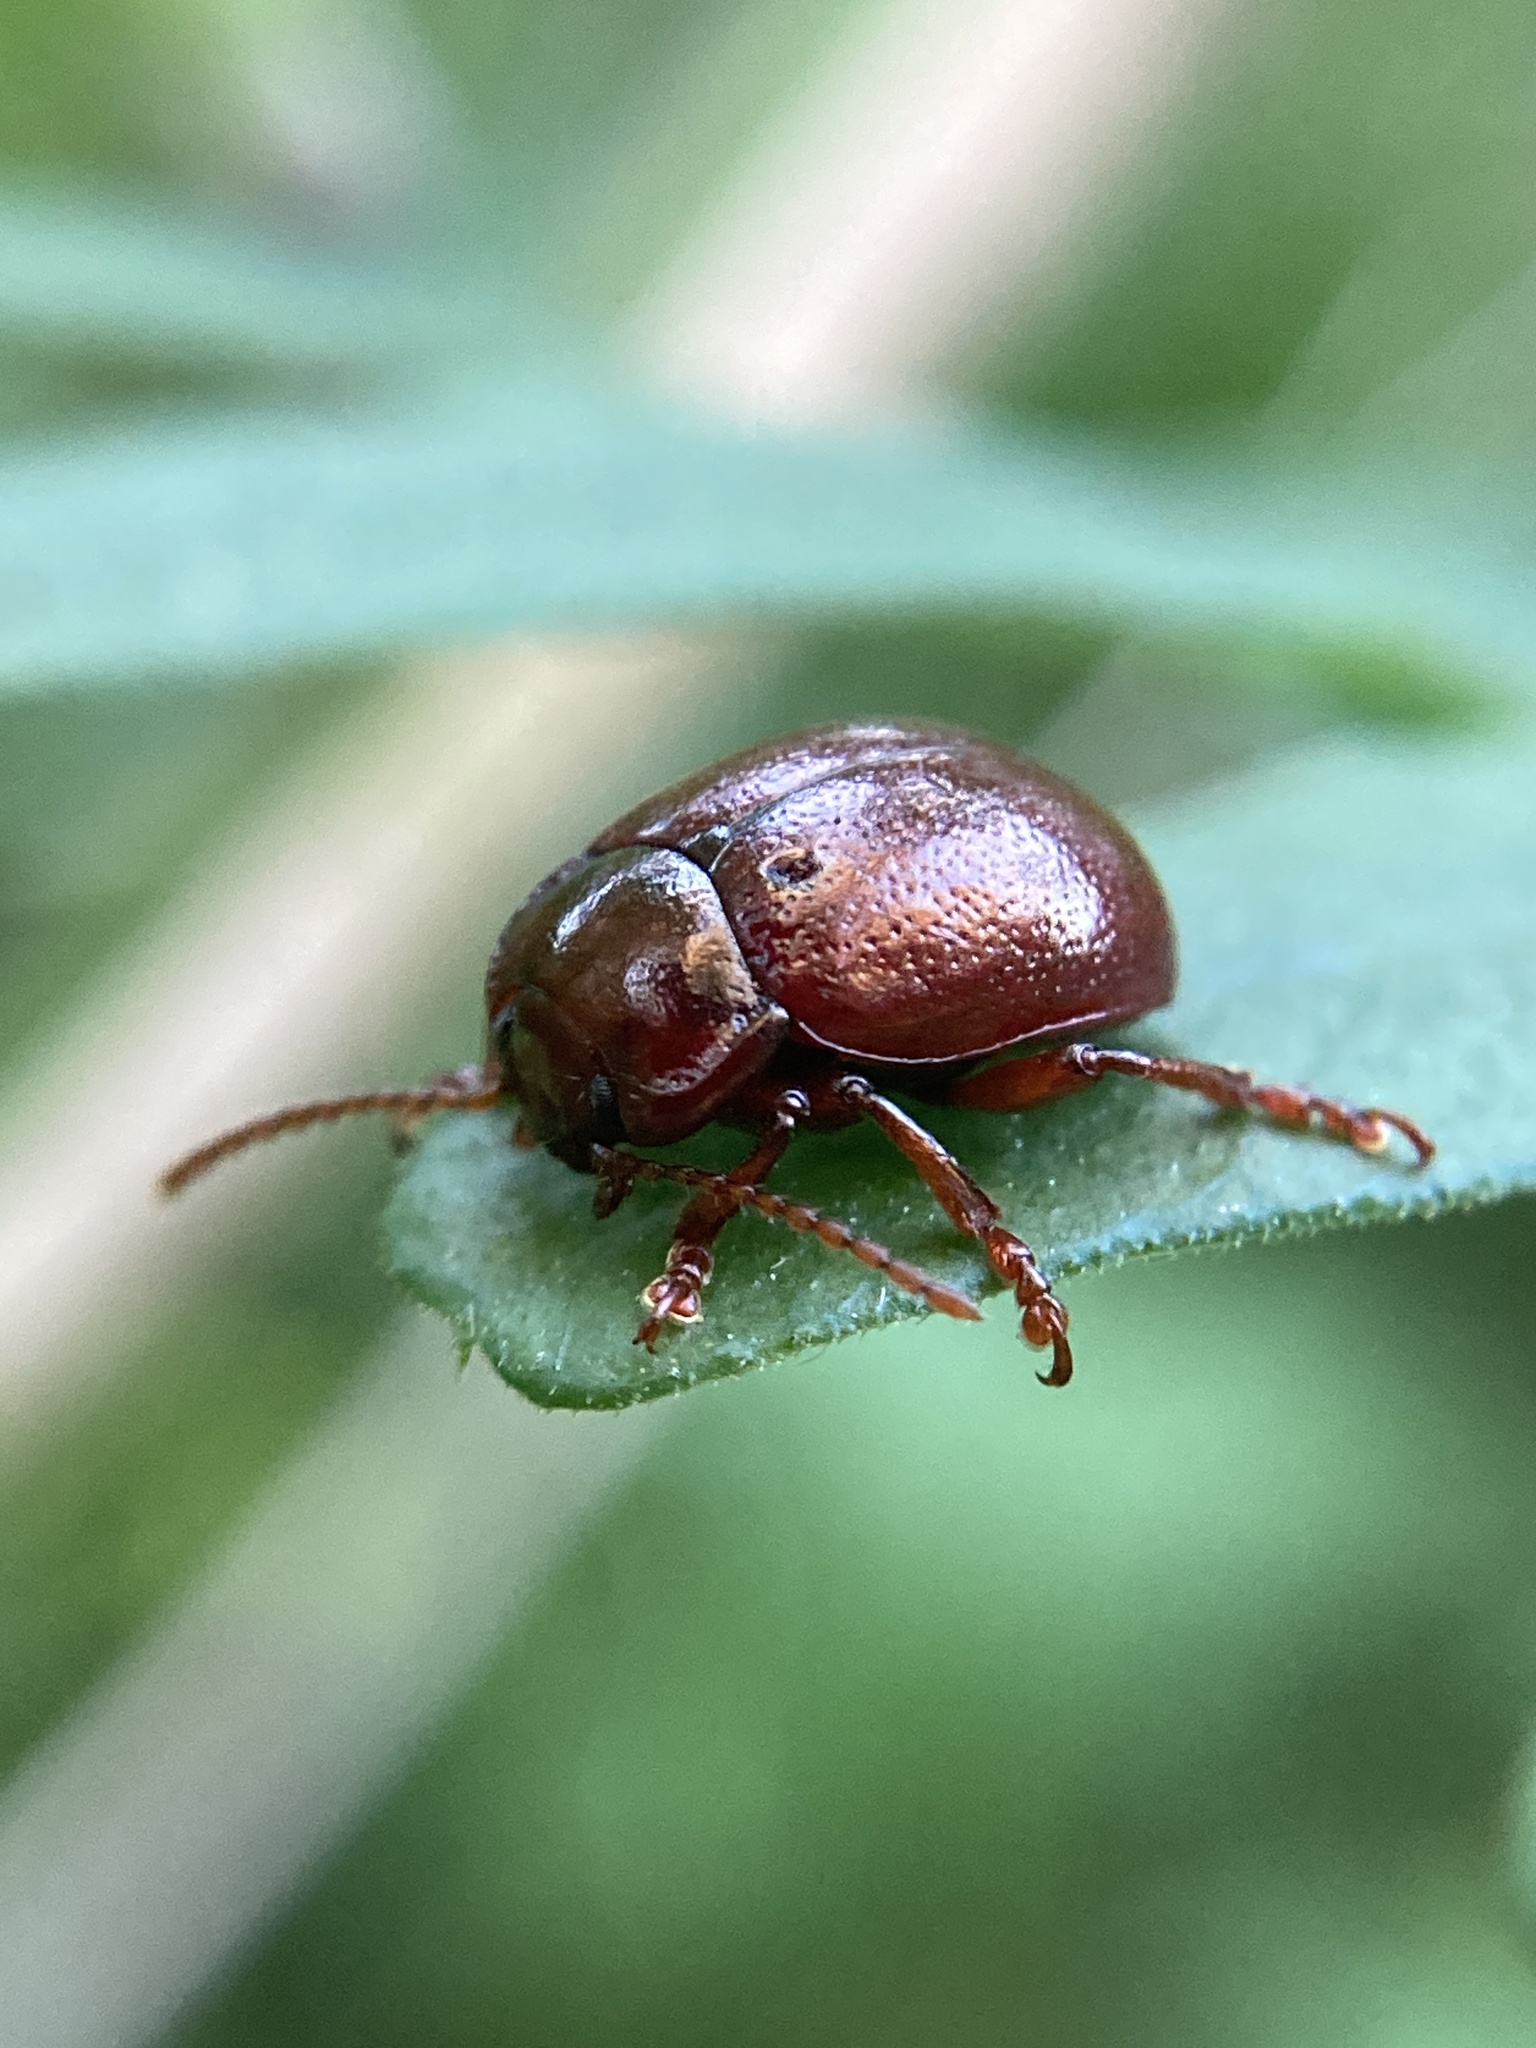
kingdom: Animalia
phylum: Arthropoda
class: Insecta
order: Coleoptera
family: Chrysomelidae
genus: Chrysolina
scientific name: Chrysolina staphylaea
